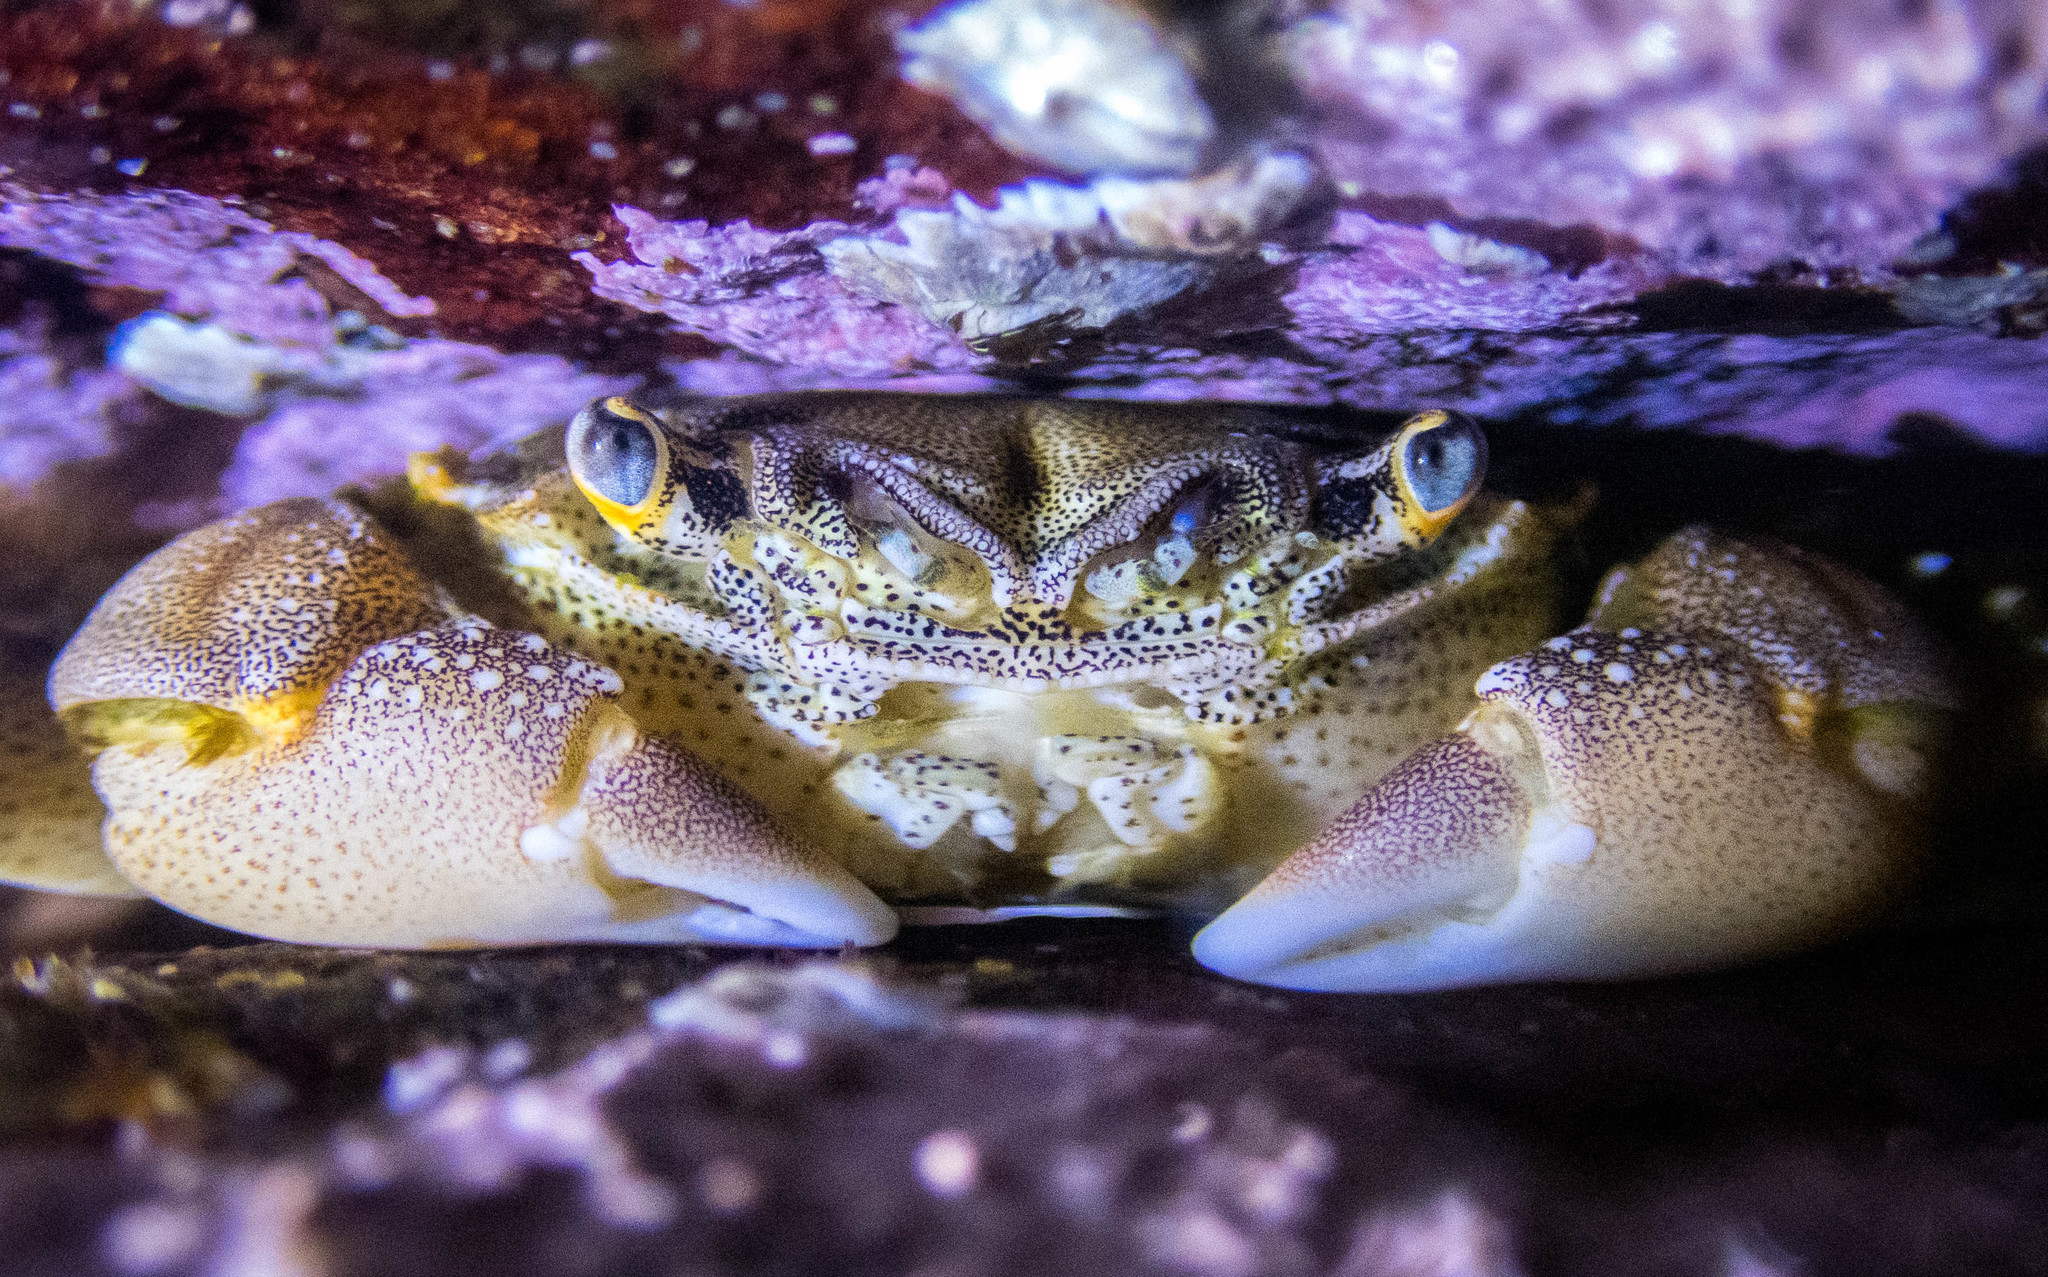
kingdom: Animalia
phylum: Arthropoda
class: Malacostraca
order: Decapoda
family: Plagusiidae
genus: Davusia
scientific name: Davusia glabra
